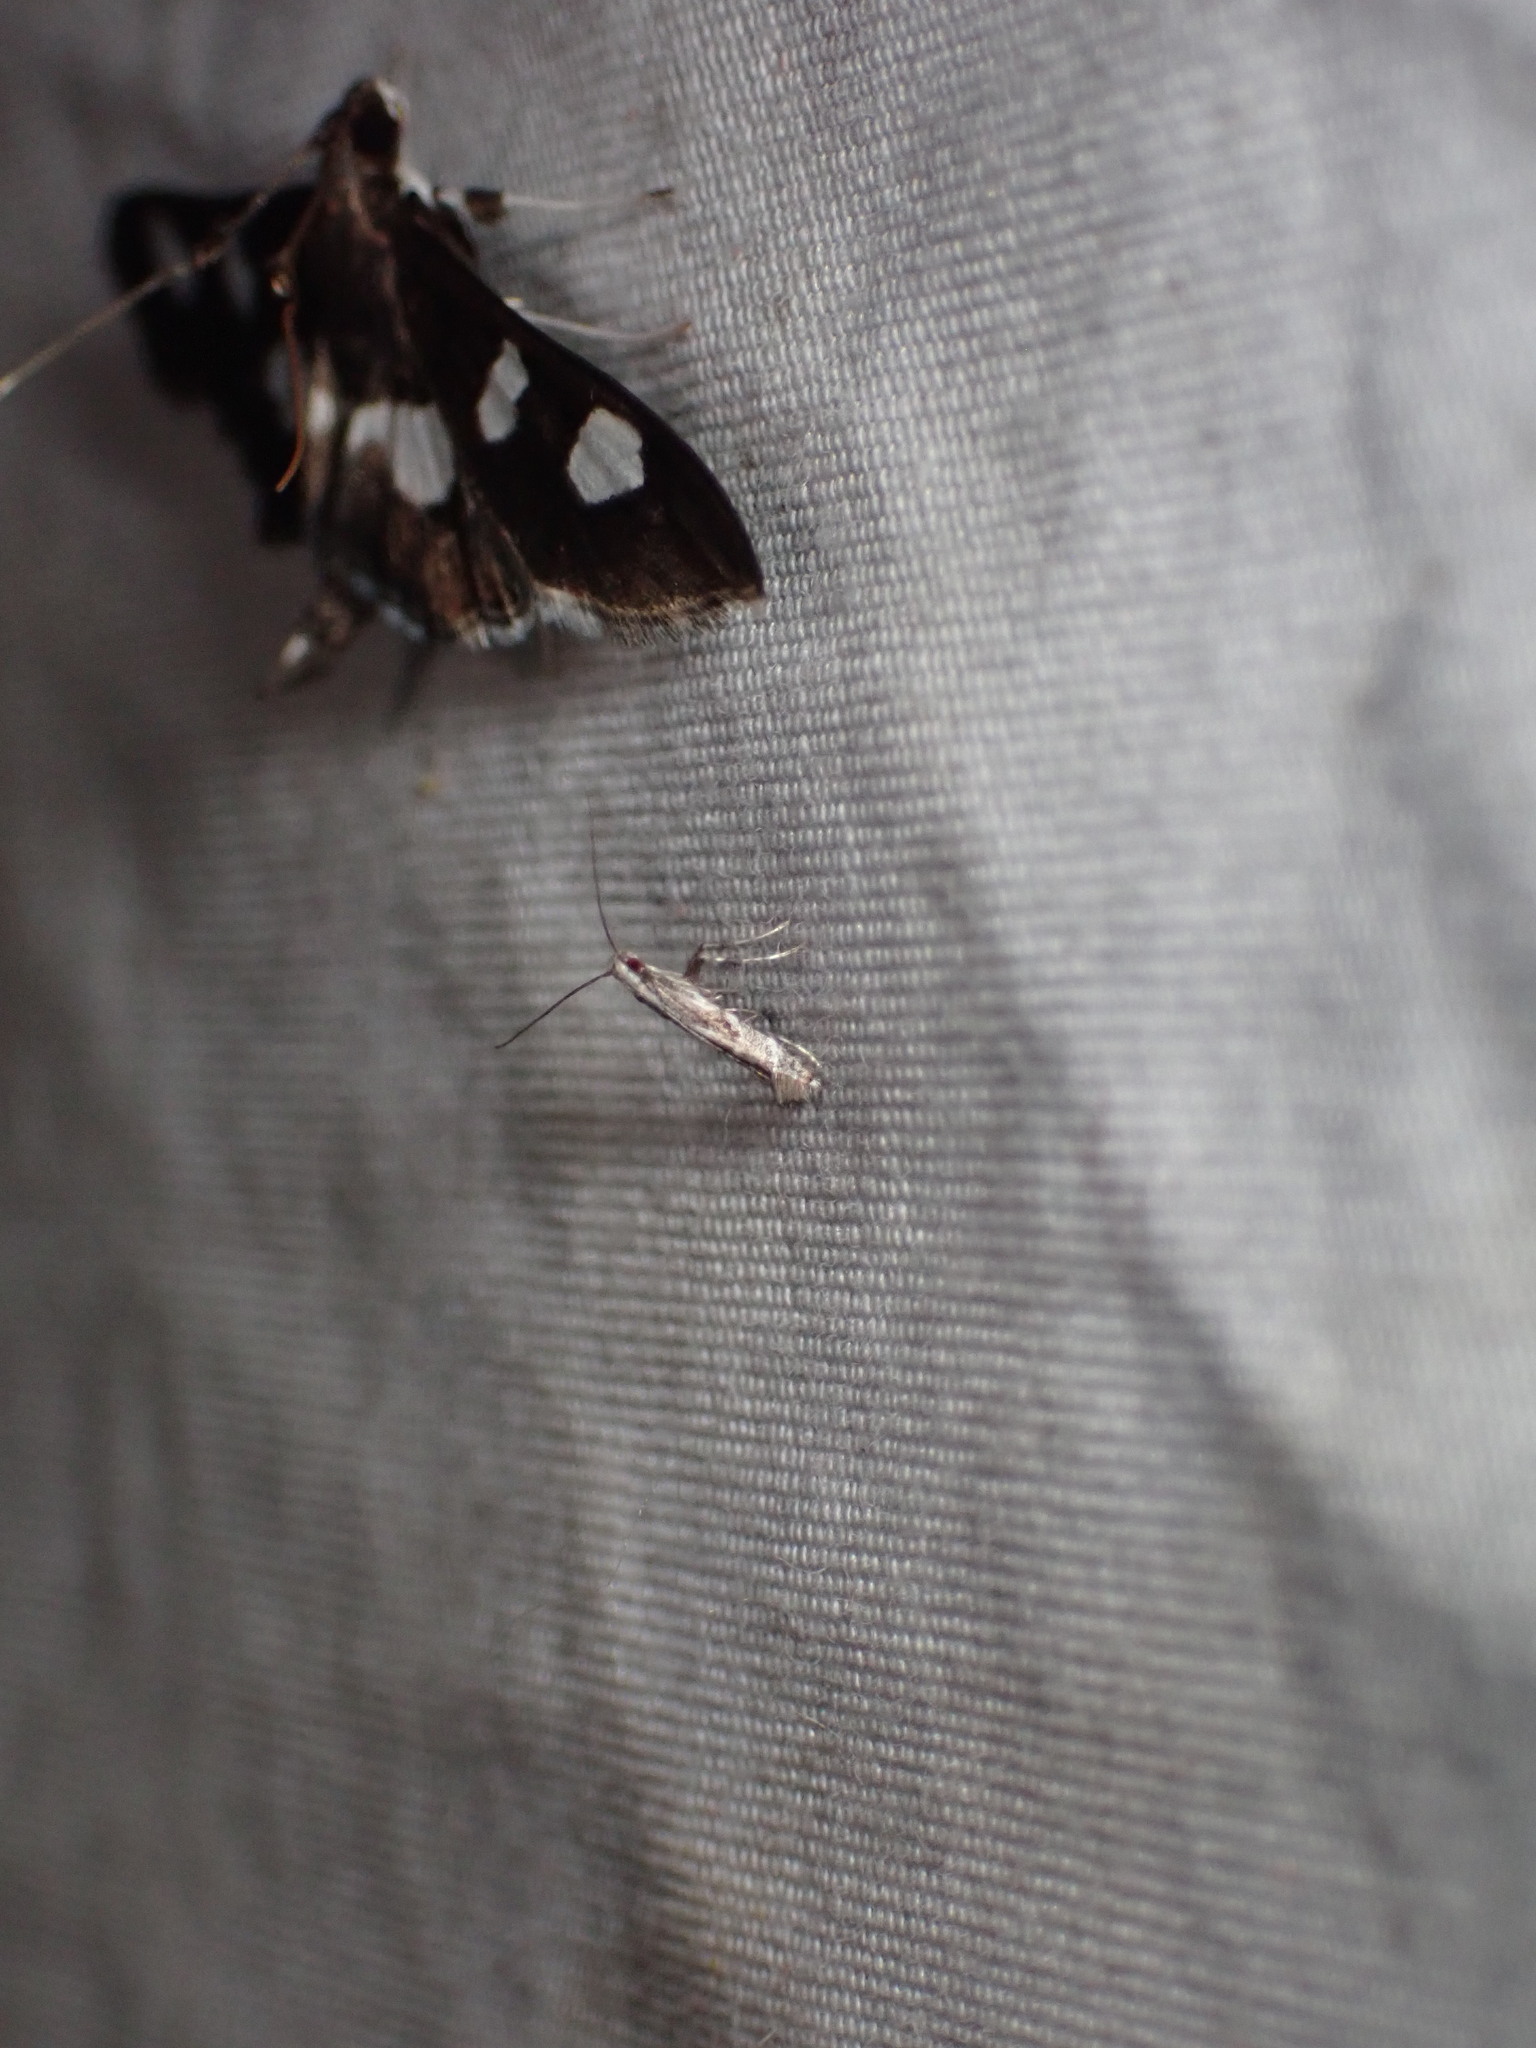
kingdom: Animalia
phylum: Arthropoda
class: Insecta
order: Lepidoptera
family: Gracillariidae
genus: Leucospilapteryx
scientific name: Leucospilapteryx venustella
